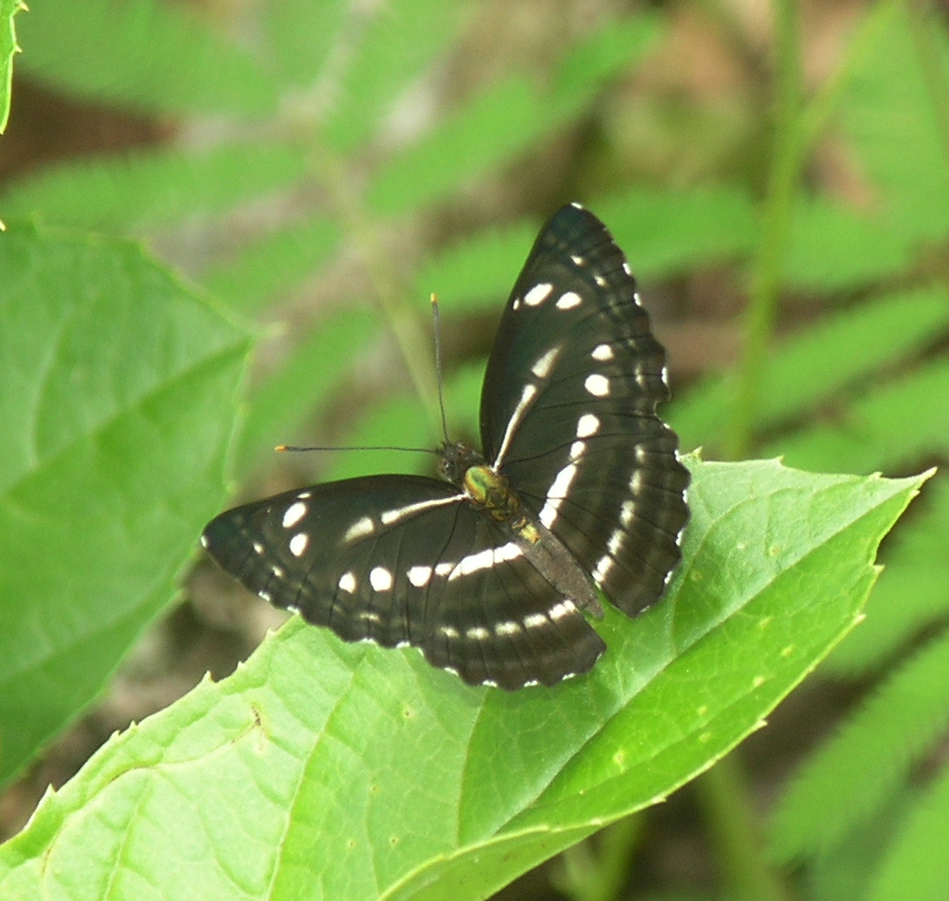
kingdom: Animalia
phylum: Arthropoda
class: Insecta
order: Lepidoptera
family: Nymphalidae
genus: Neptis
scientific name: Neptis nata
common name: Sullied brown sailer
